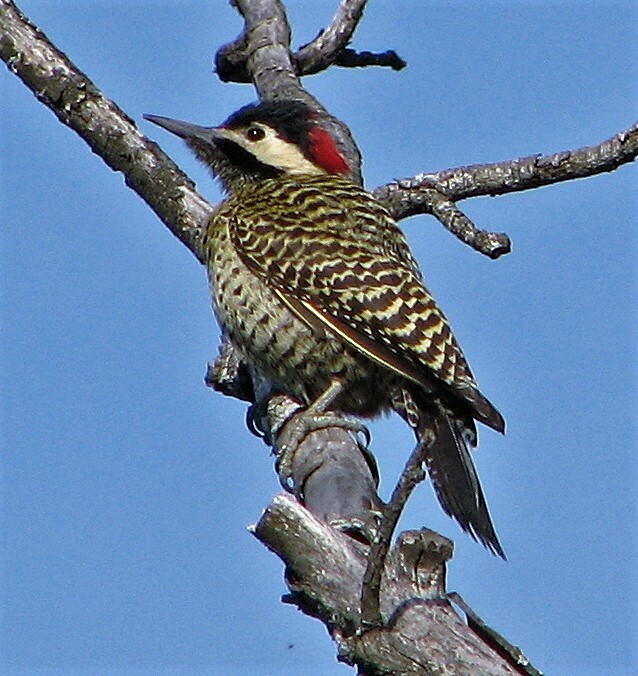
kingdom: Animalia
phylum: Chordata
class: Aves
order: Piciformes
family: Picidae
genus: Colaptes
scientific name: Colaptes melanochloros
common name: Green-barred woodpecker
